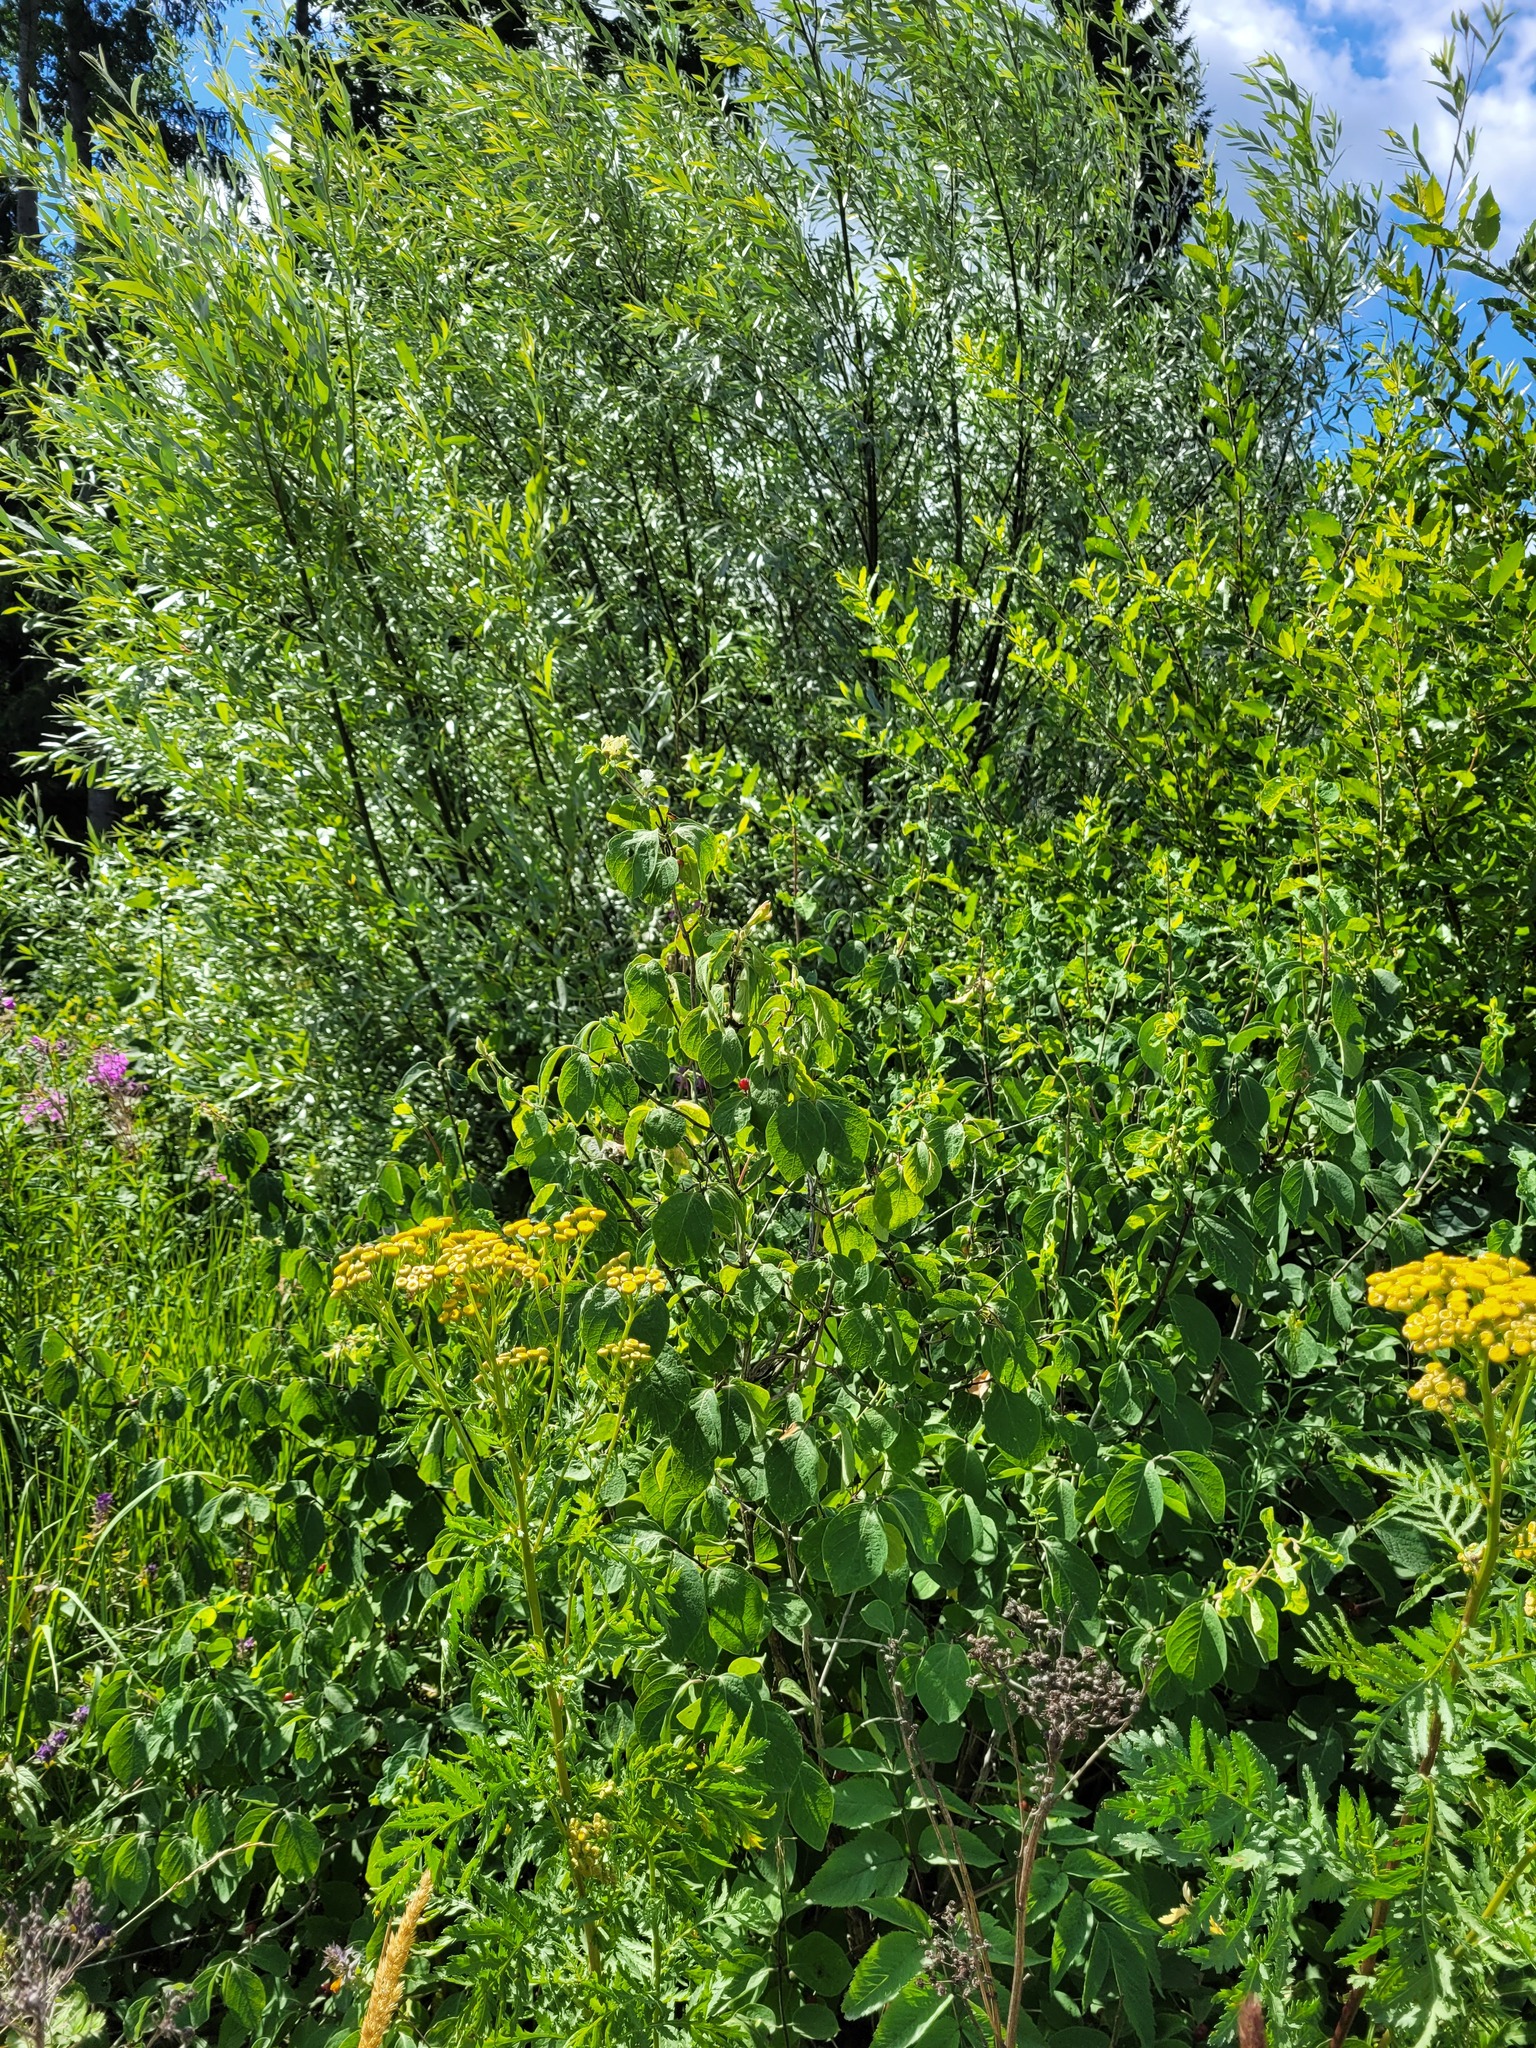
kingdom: Plantae
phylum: Tracheophyta
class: Magnoliopsida
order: Dipsacales
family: Caprifoliaceae
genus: Lonicera
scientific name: Lonicera xylosteum
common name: Fly honeysuckle
